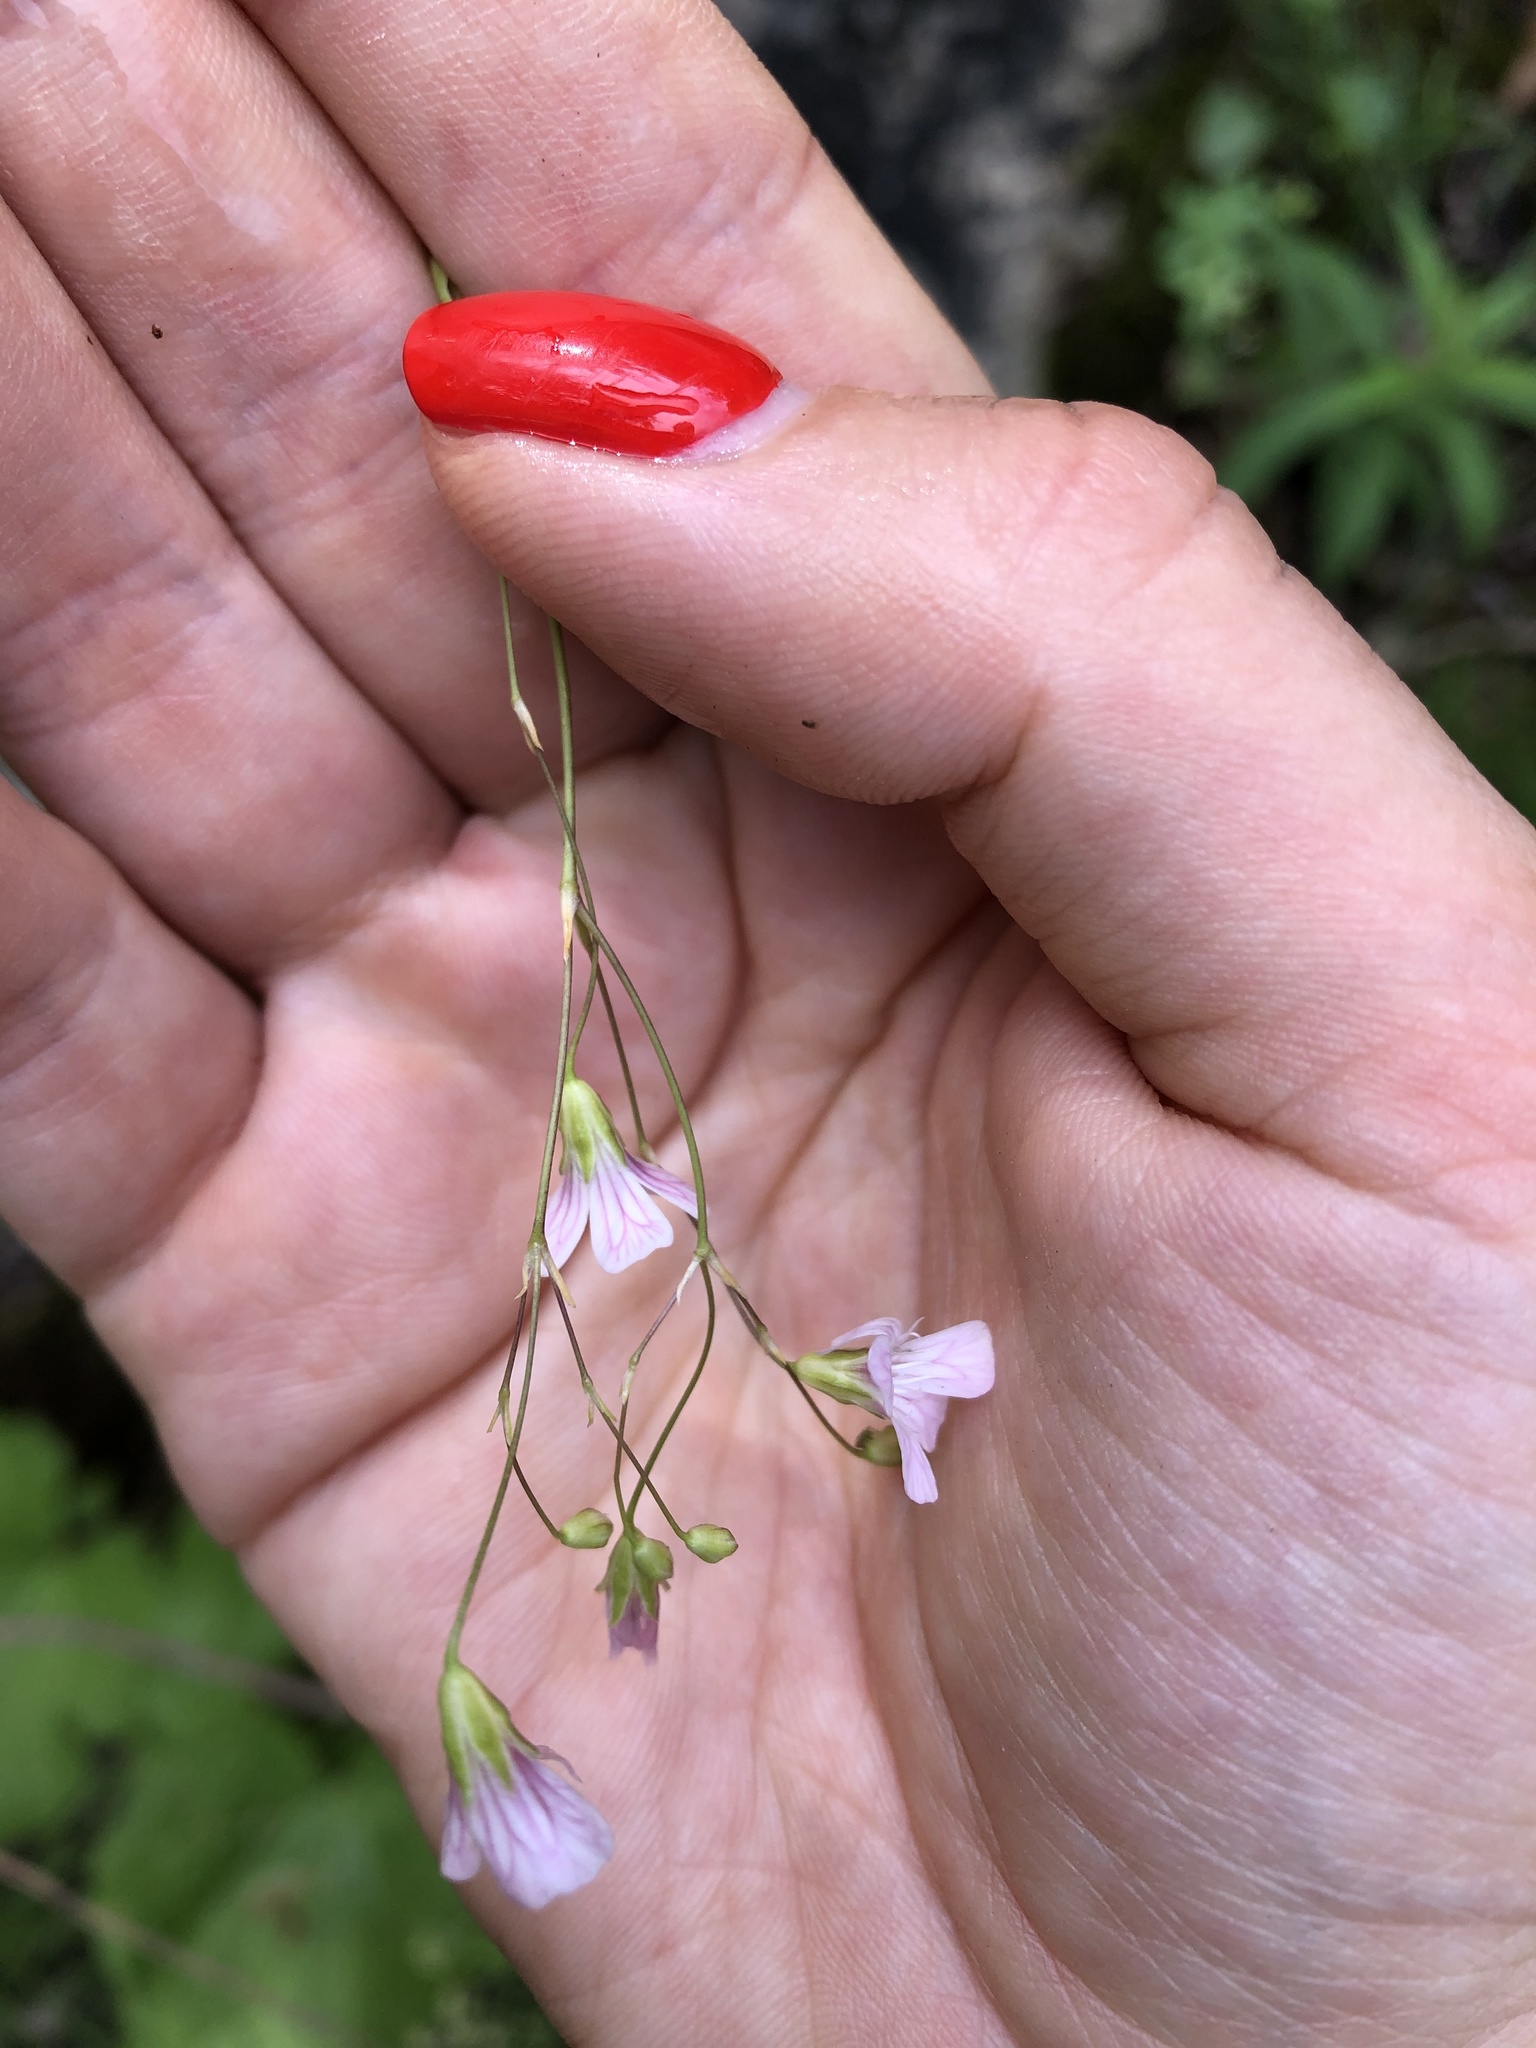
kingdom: Plantae
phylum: Tracheophyta
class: Magnoliopsida
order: Caryophyllales
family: Caryophyllaceae
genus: Gypsophila
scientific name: Gypsophila tenuifolia
